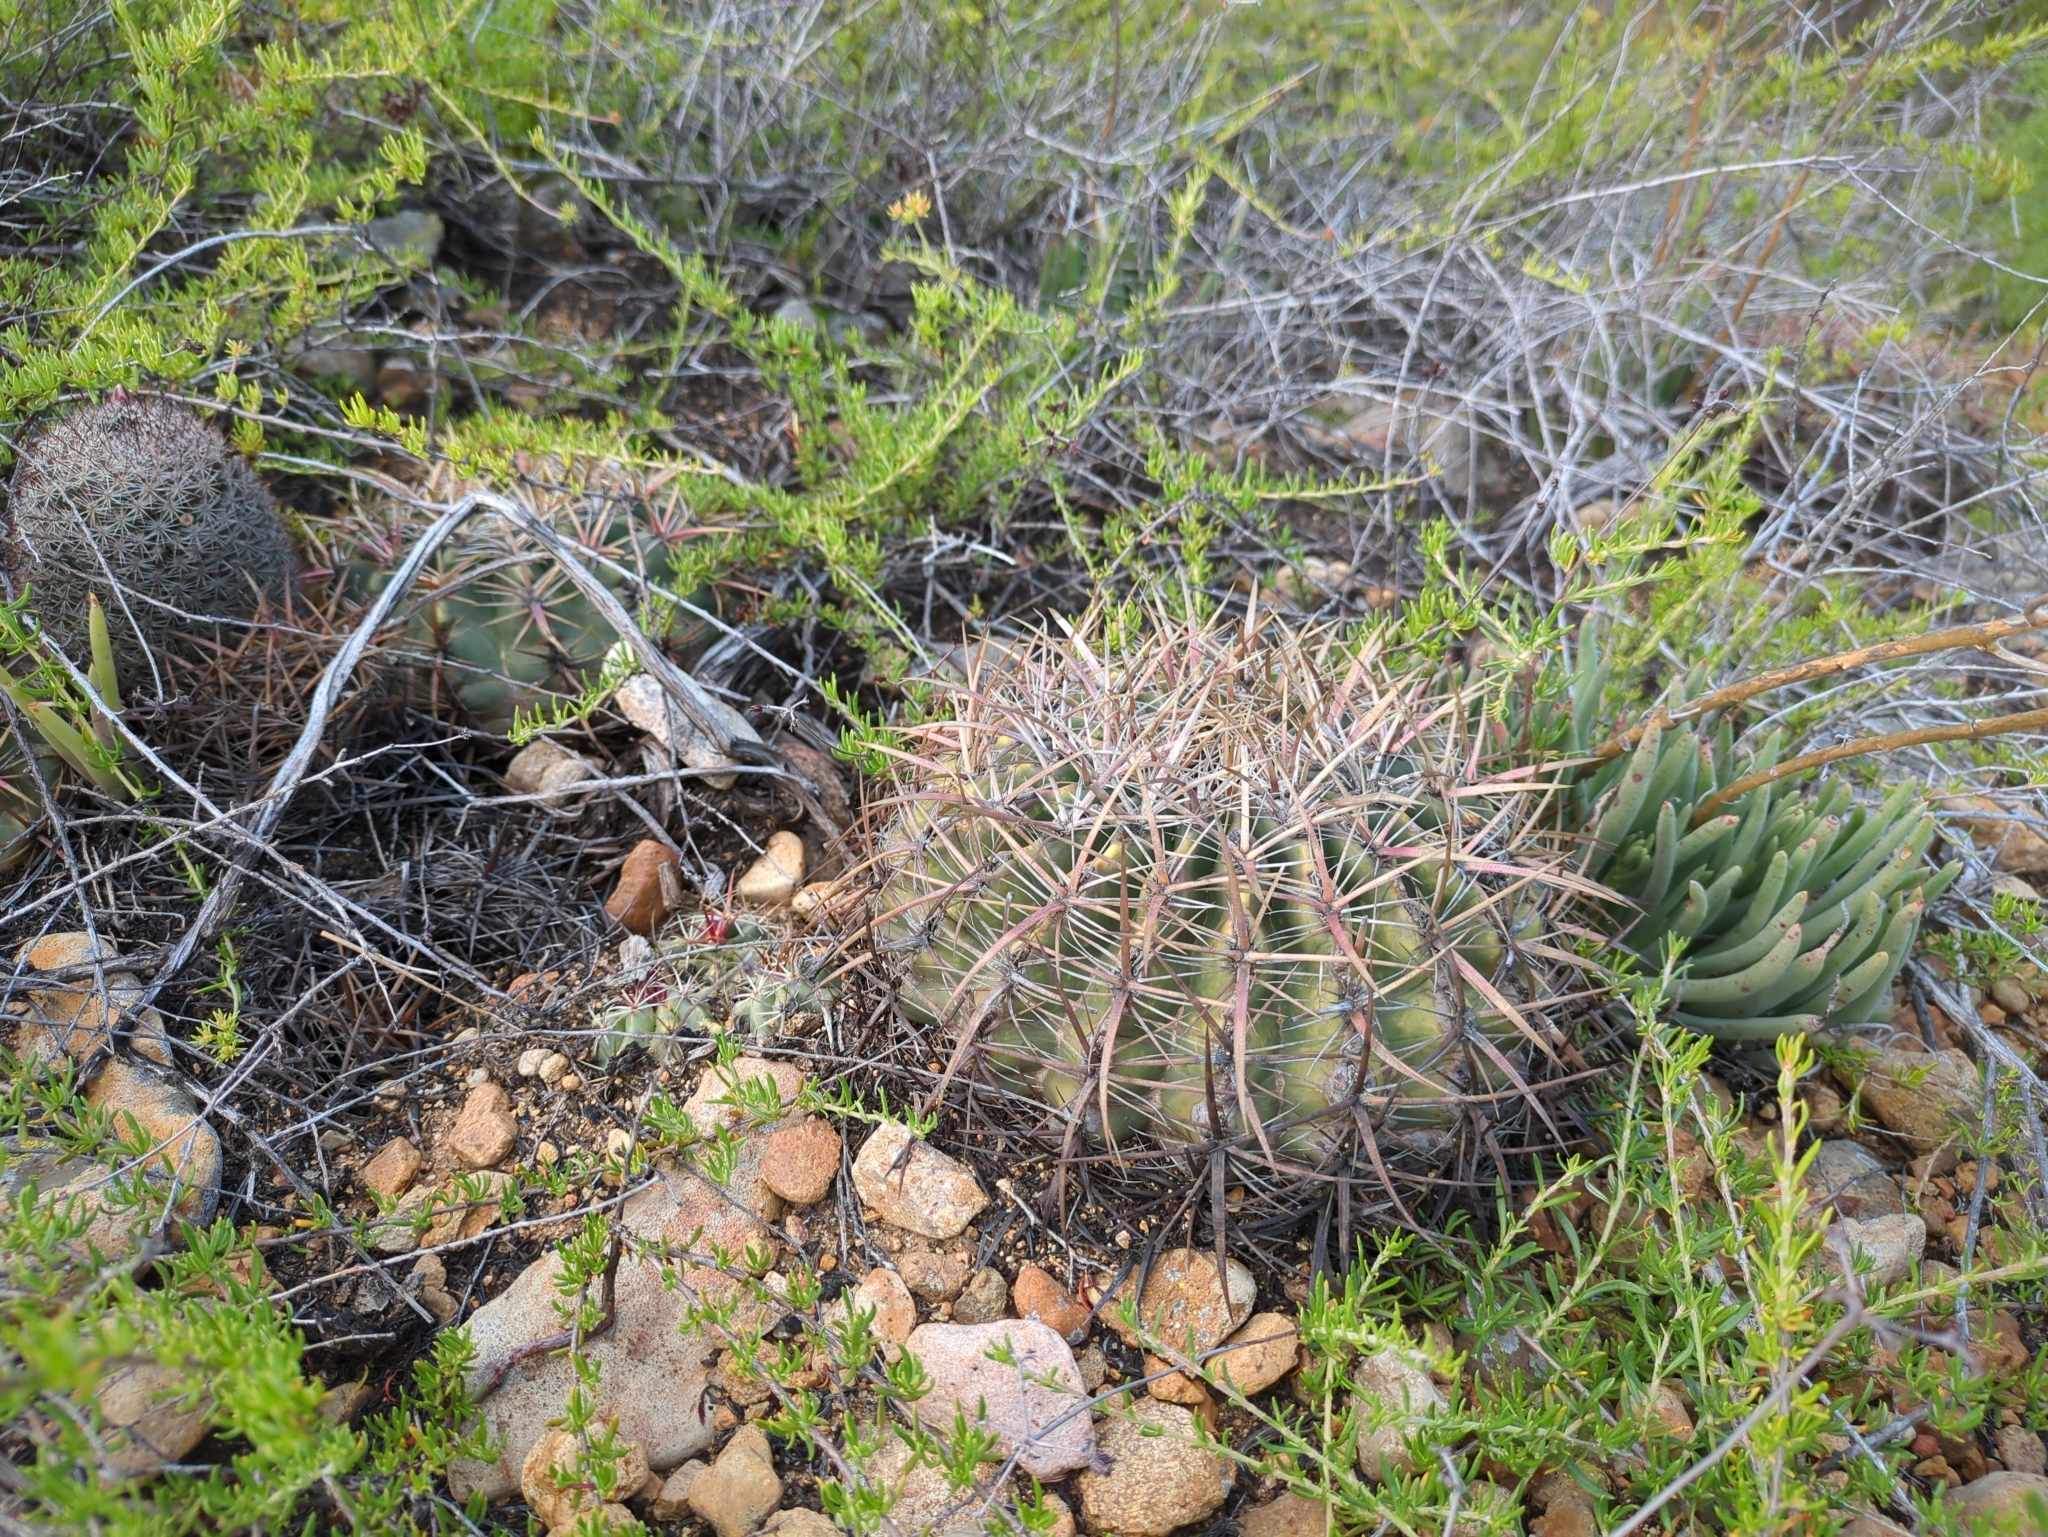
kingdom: Plantae
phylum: Tracheophyta
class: Magnoliopsida
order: Caryophyllales
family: Cactaceae
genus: Ferocactus
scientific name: Ferocactus viridescens
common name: San diego barrel cactus
